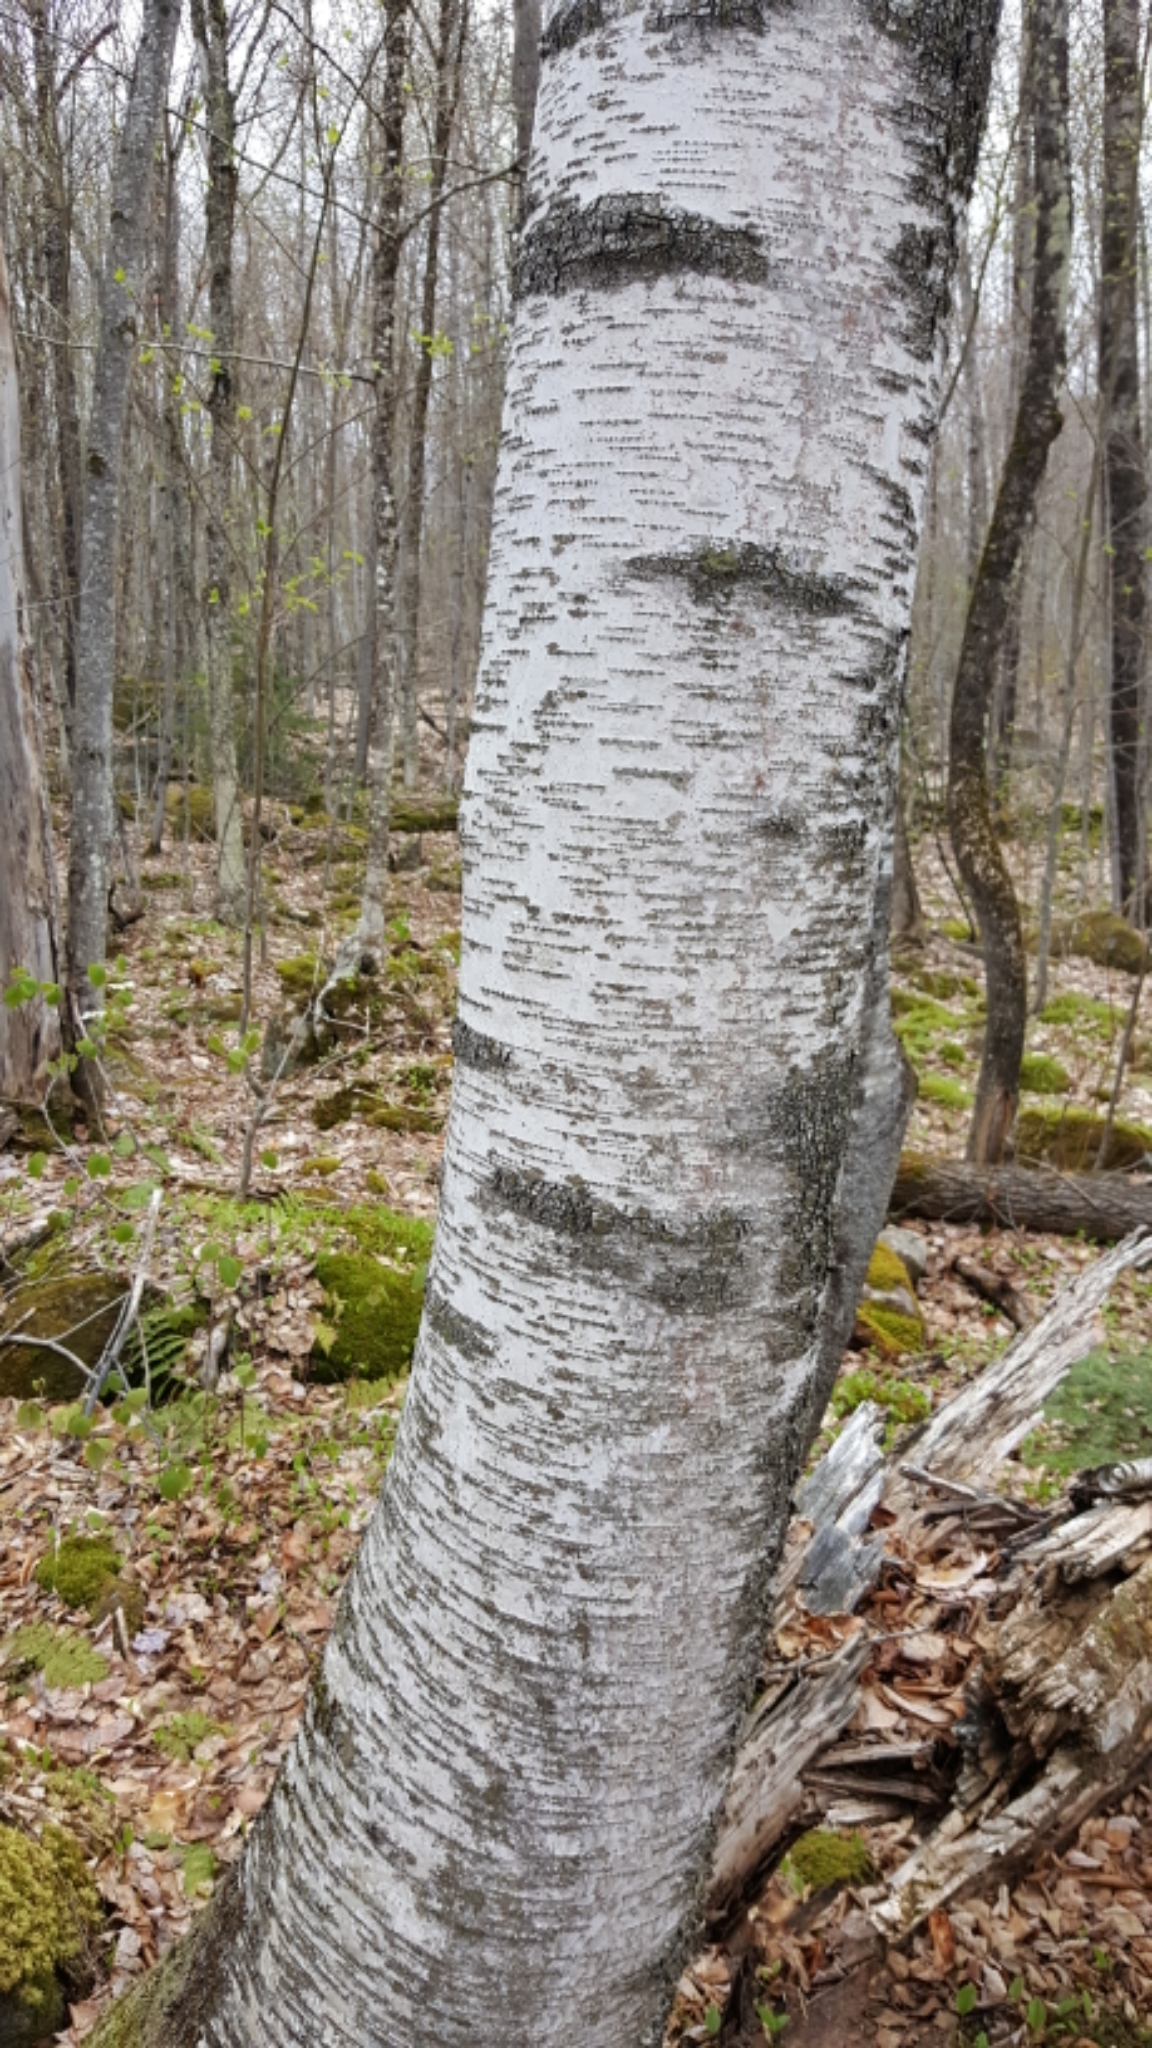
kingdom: Plantae
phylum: Tracheophyta
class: Magnoliopsida
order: Fagales
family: Betulaceae
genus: Betula
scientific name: Betula populifolia
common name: Fire birch
